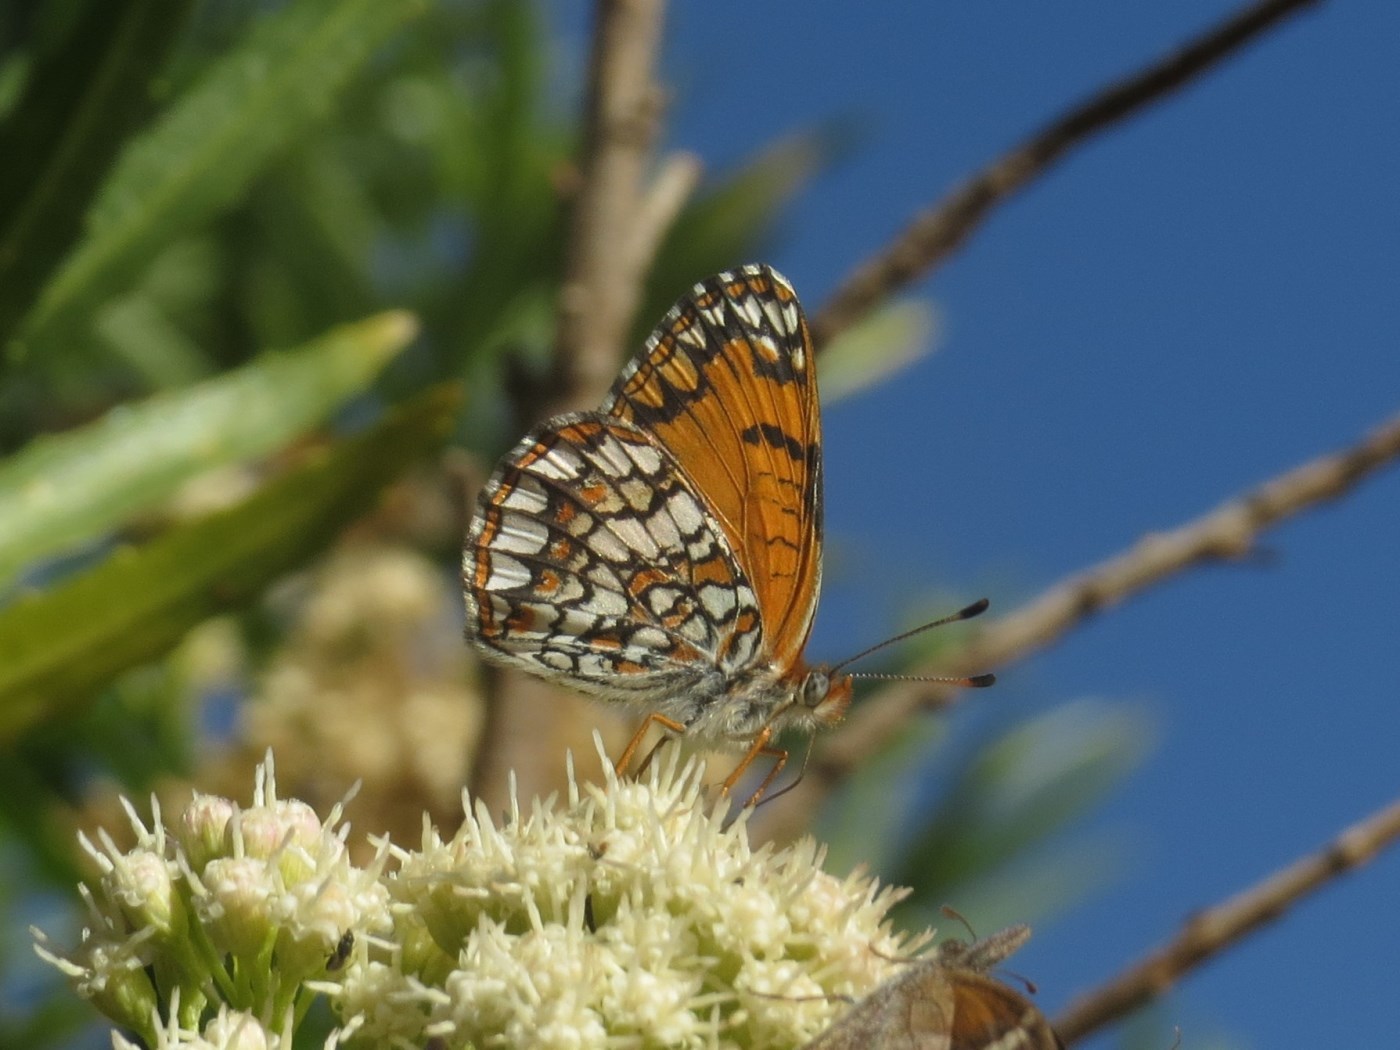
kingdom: Animalia
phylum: Arthropoda
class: Insecta
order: Lepidoptera
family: Nymphalidae
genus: Chlosyne
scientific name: Chlosyne acastus
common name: Sagebrush checkerspot
